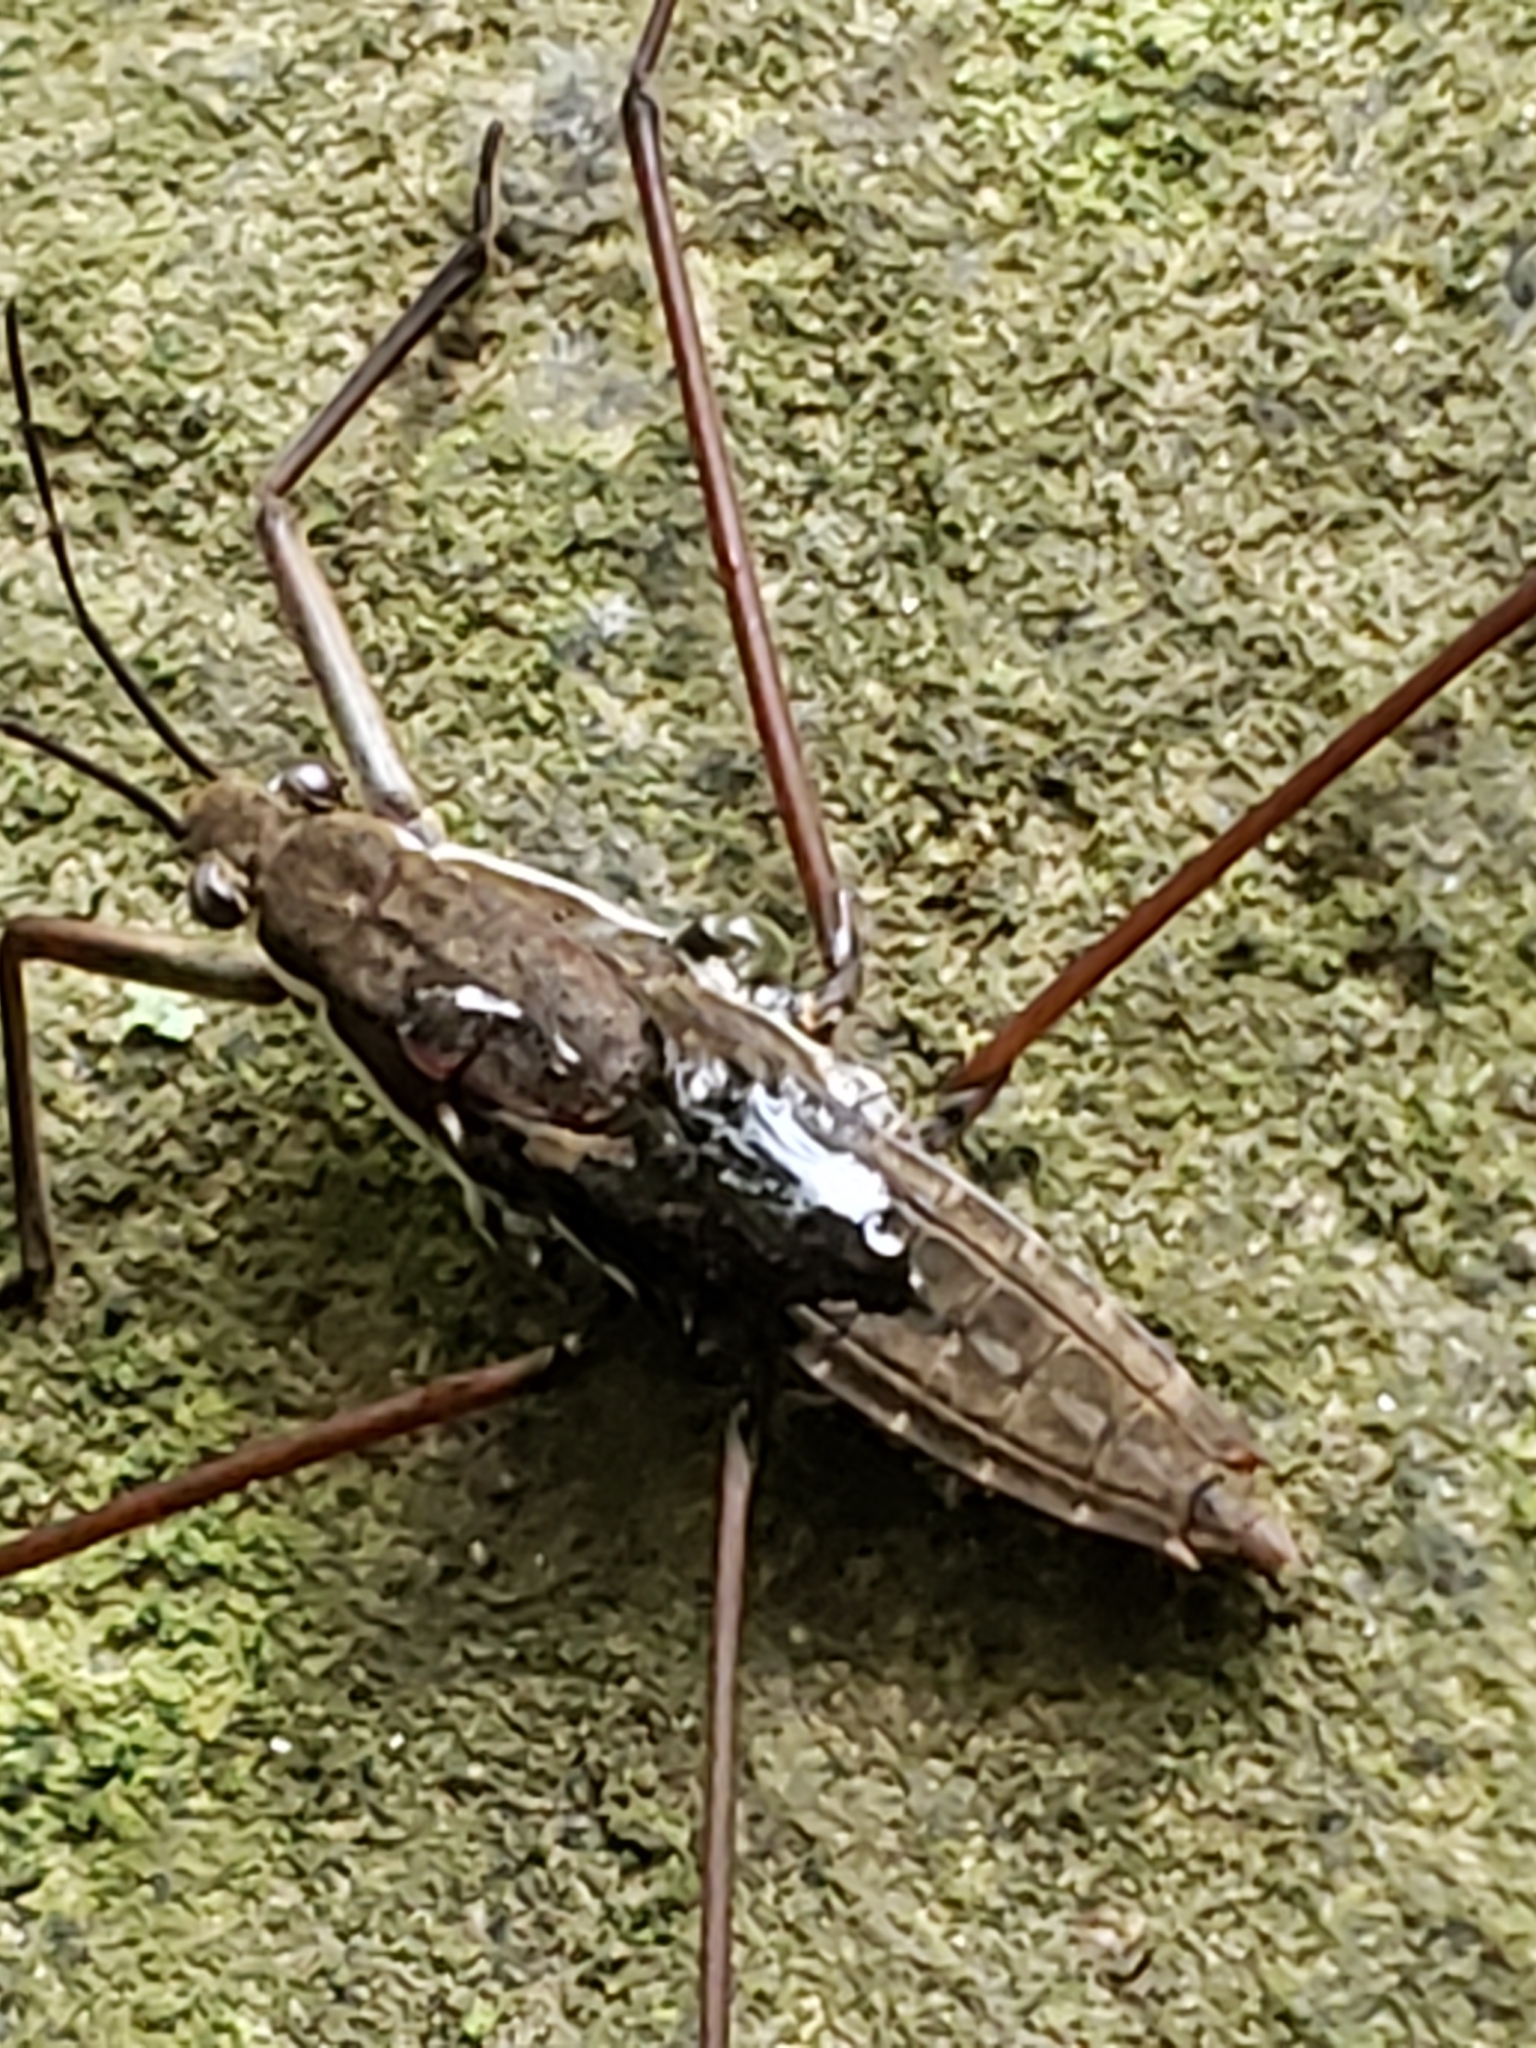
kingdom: Animalia
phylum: Arthropoda
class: Insecta
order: Hemiptera
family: Gerridae
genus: Aquarius
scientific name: Aquarius
